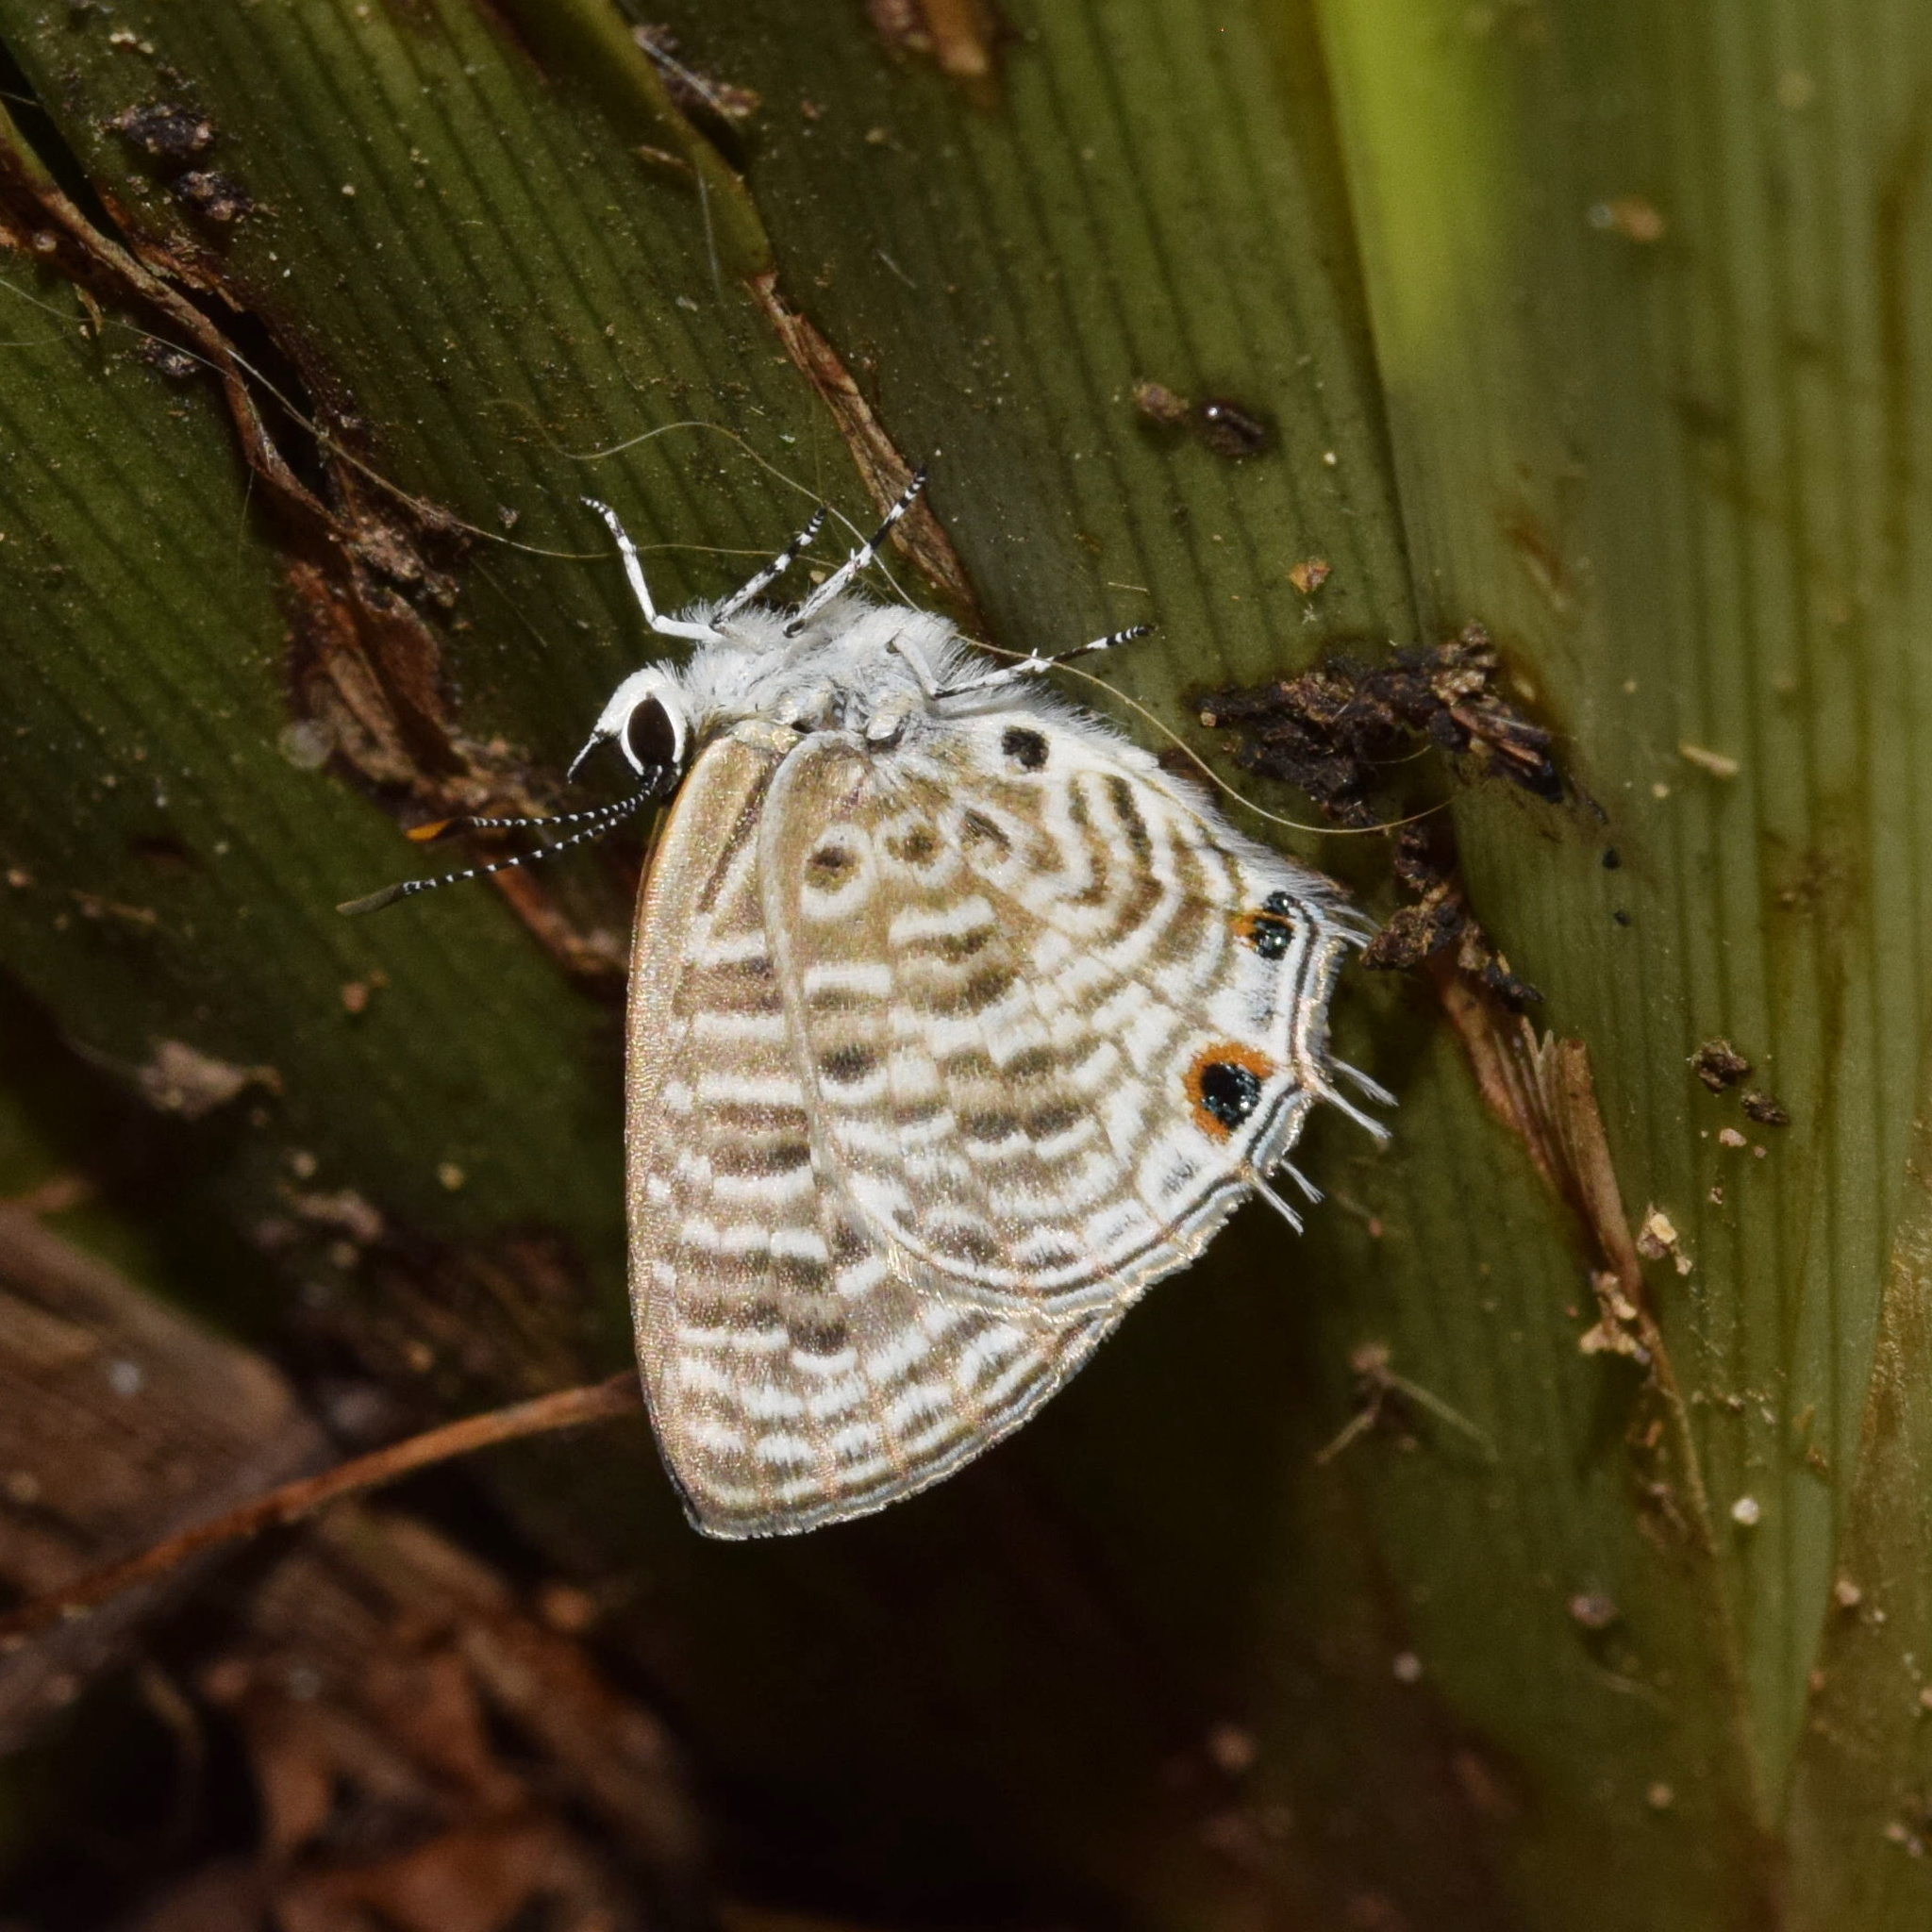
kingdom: Animalia
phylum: Arthropoda
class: Insecta
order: Lepidoptera
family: Lycaenidae
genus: Anthene
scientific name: Anthene larydas
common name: Forest hairtail
